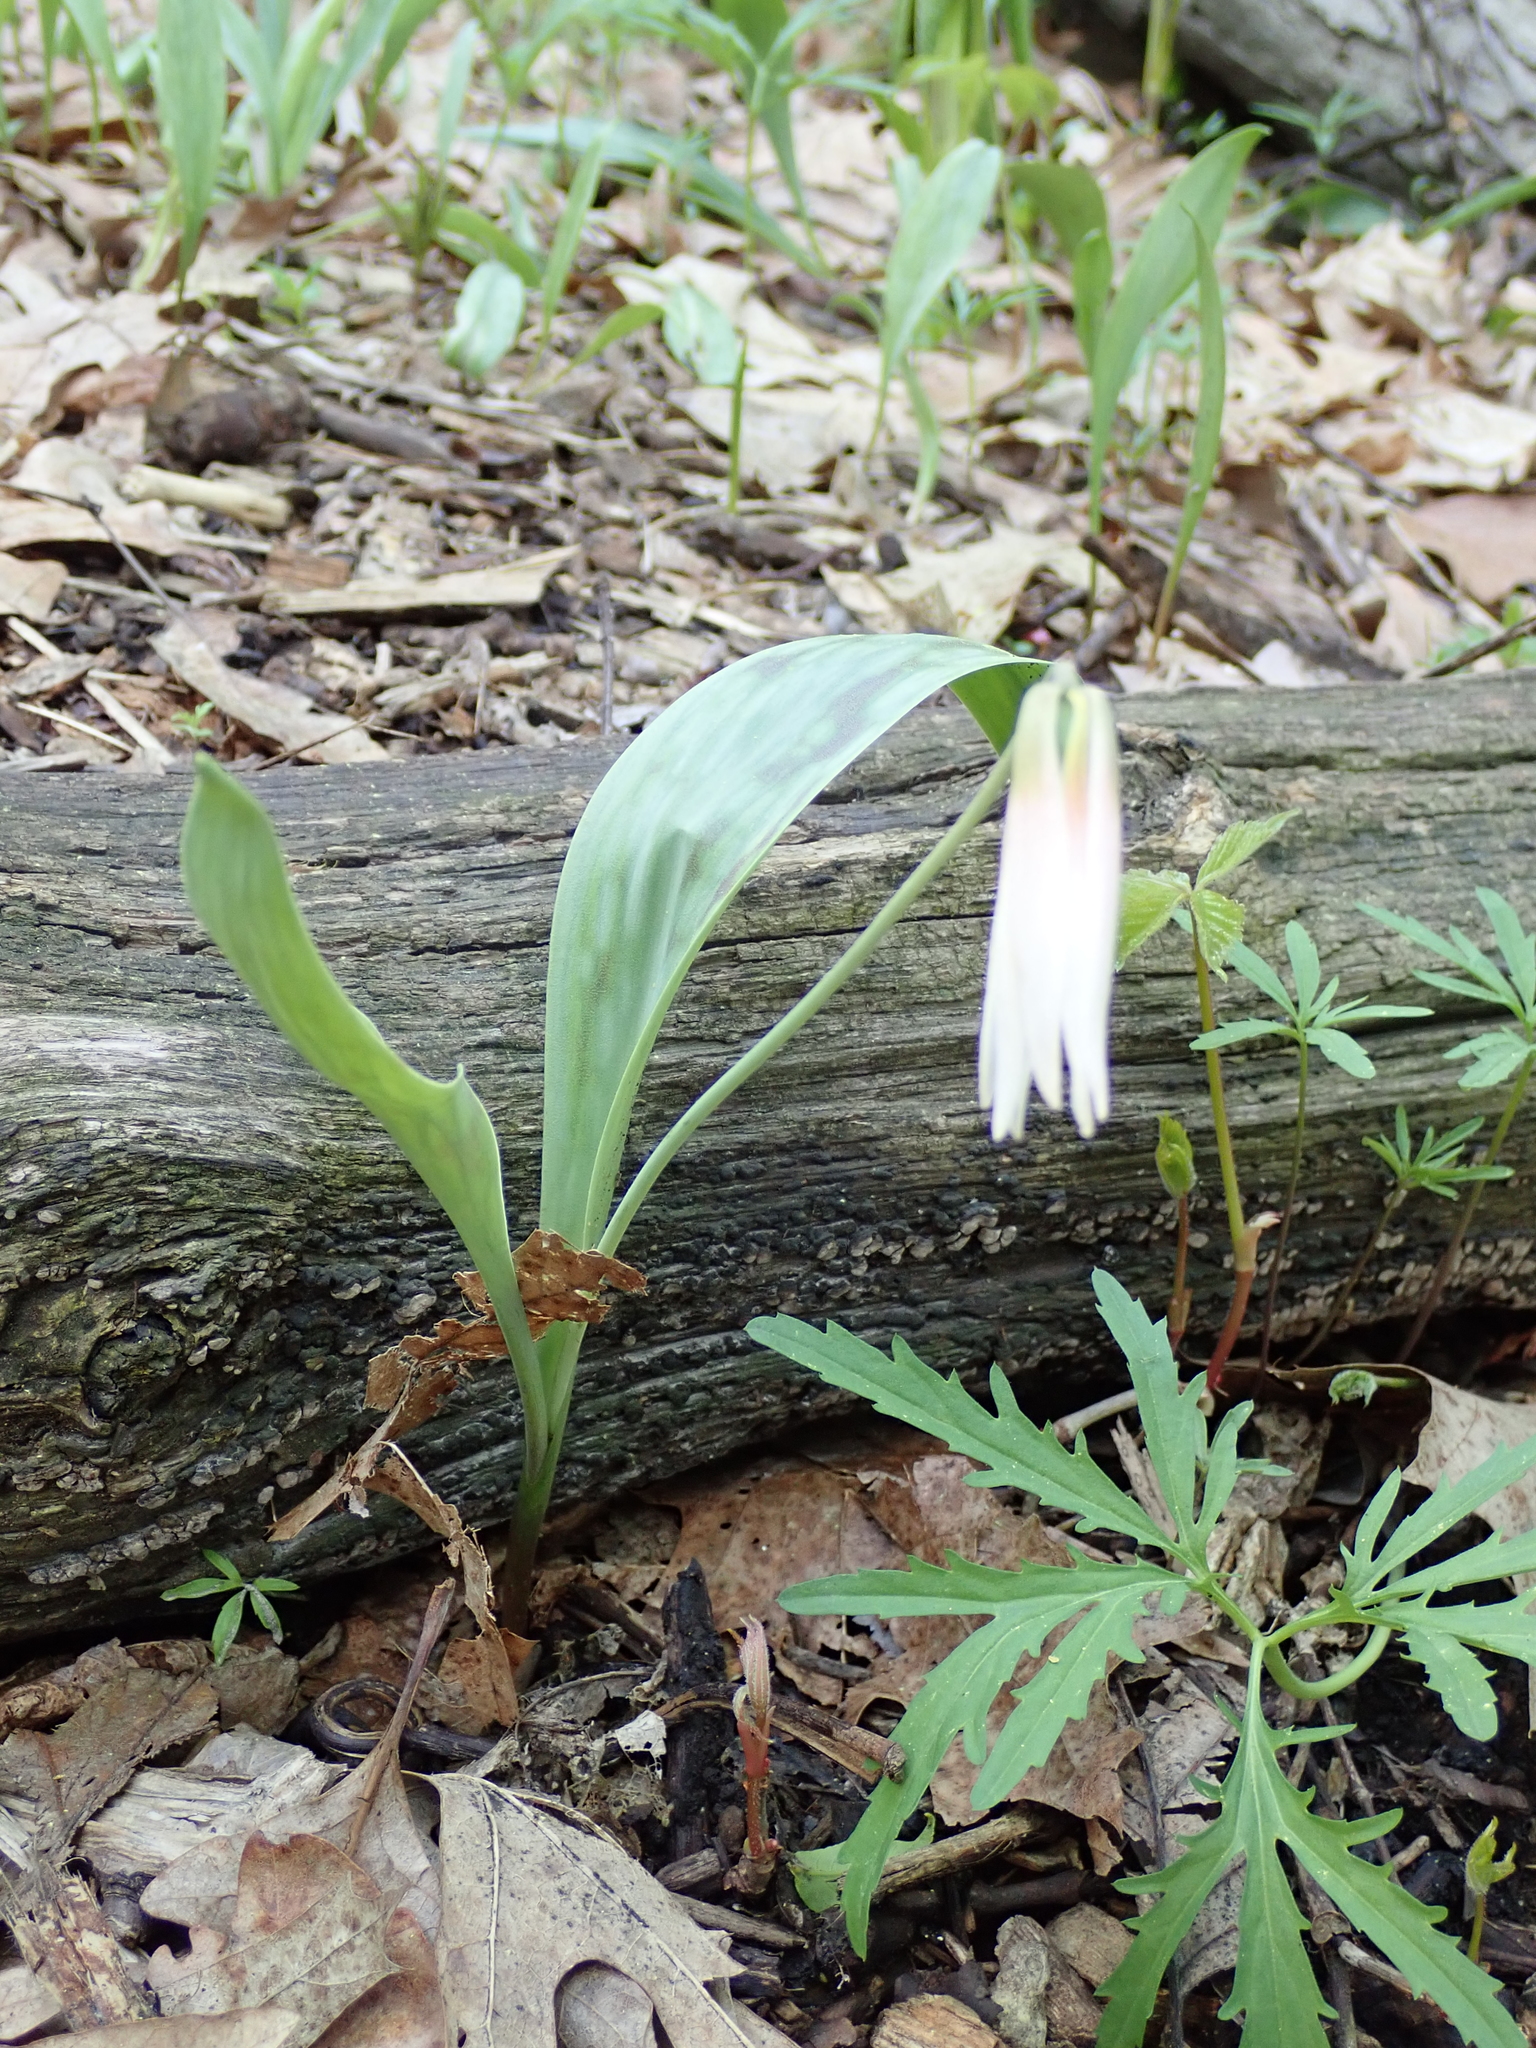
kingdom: Plantae
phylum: Tracheophyta
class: Liliopsida
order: Liliales
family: Liliaceae
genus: Erythronium
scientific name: Erythronium albidum
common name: White trout-lily
